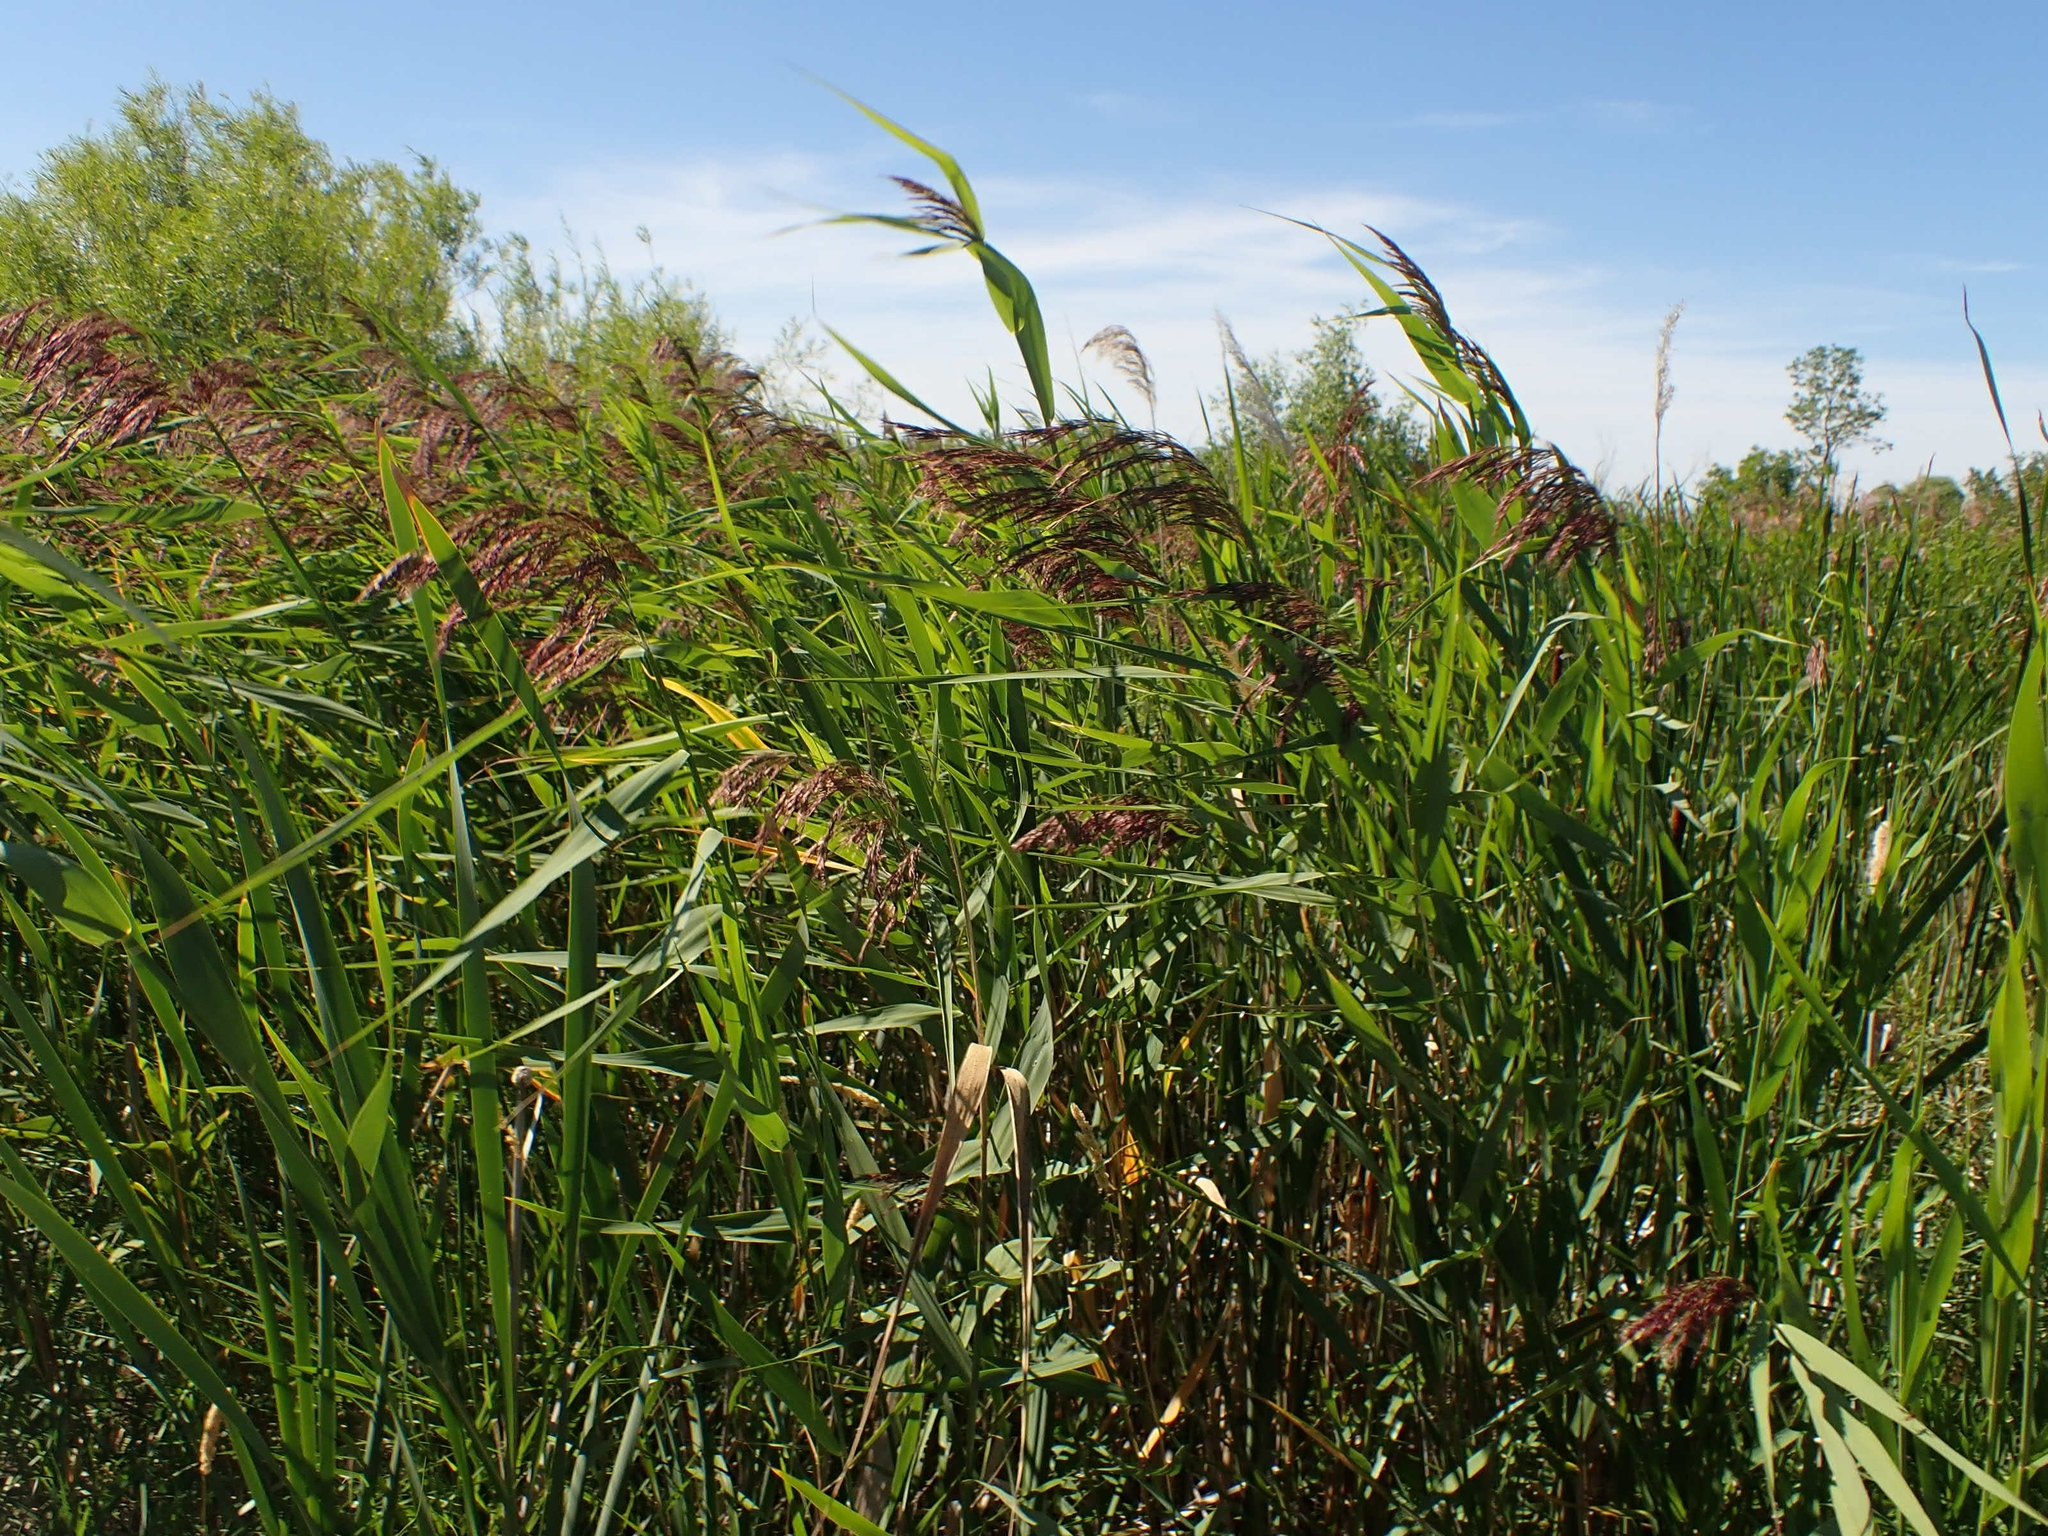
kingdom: Plantae
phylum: Tracheophyta
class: Liliopsida
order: Poales
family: Poaceae
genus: Phragmites
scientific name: Phragmites australis
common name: Common reed
